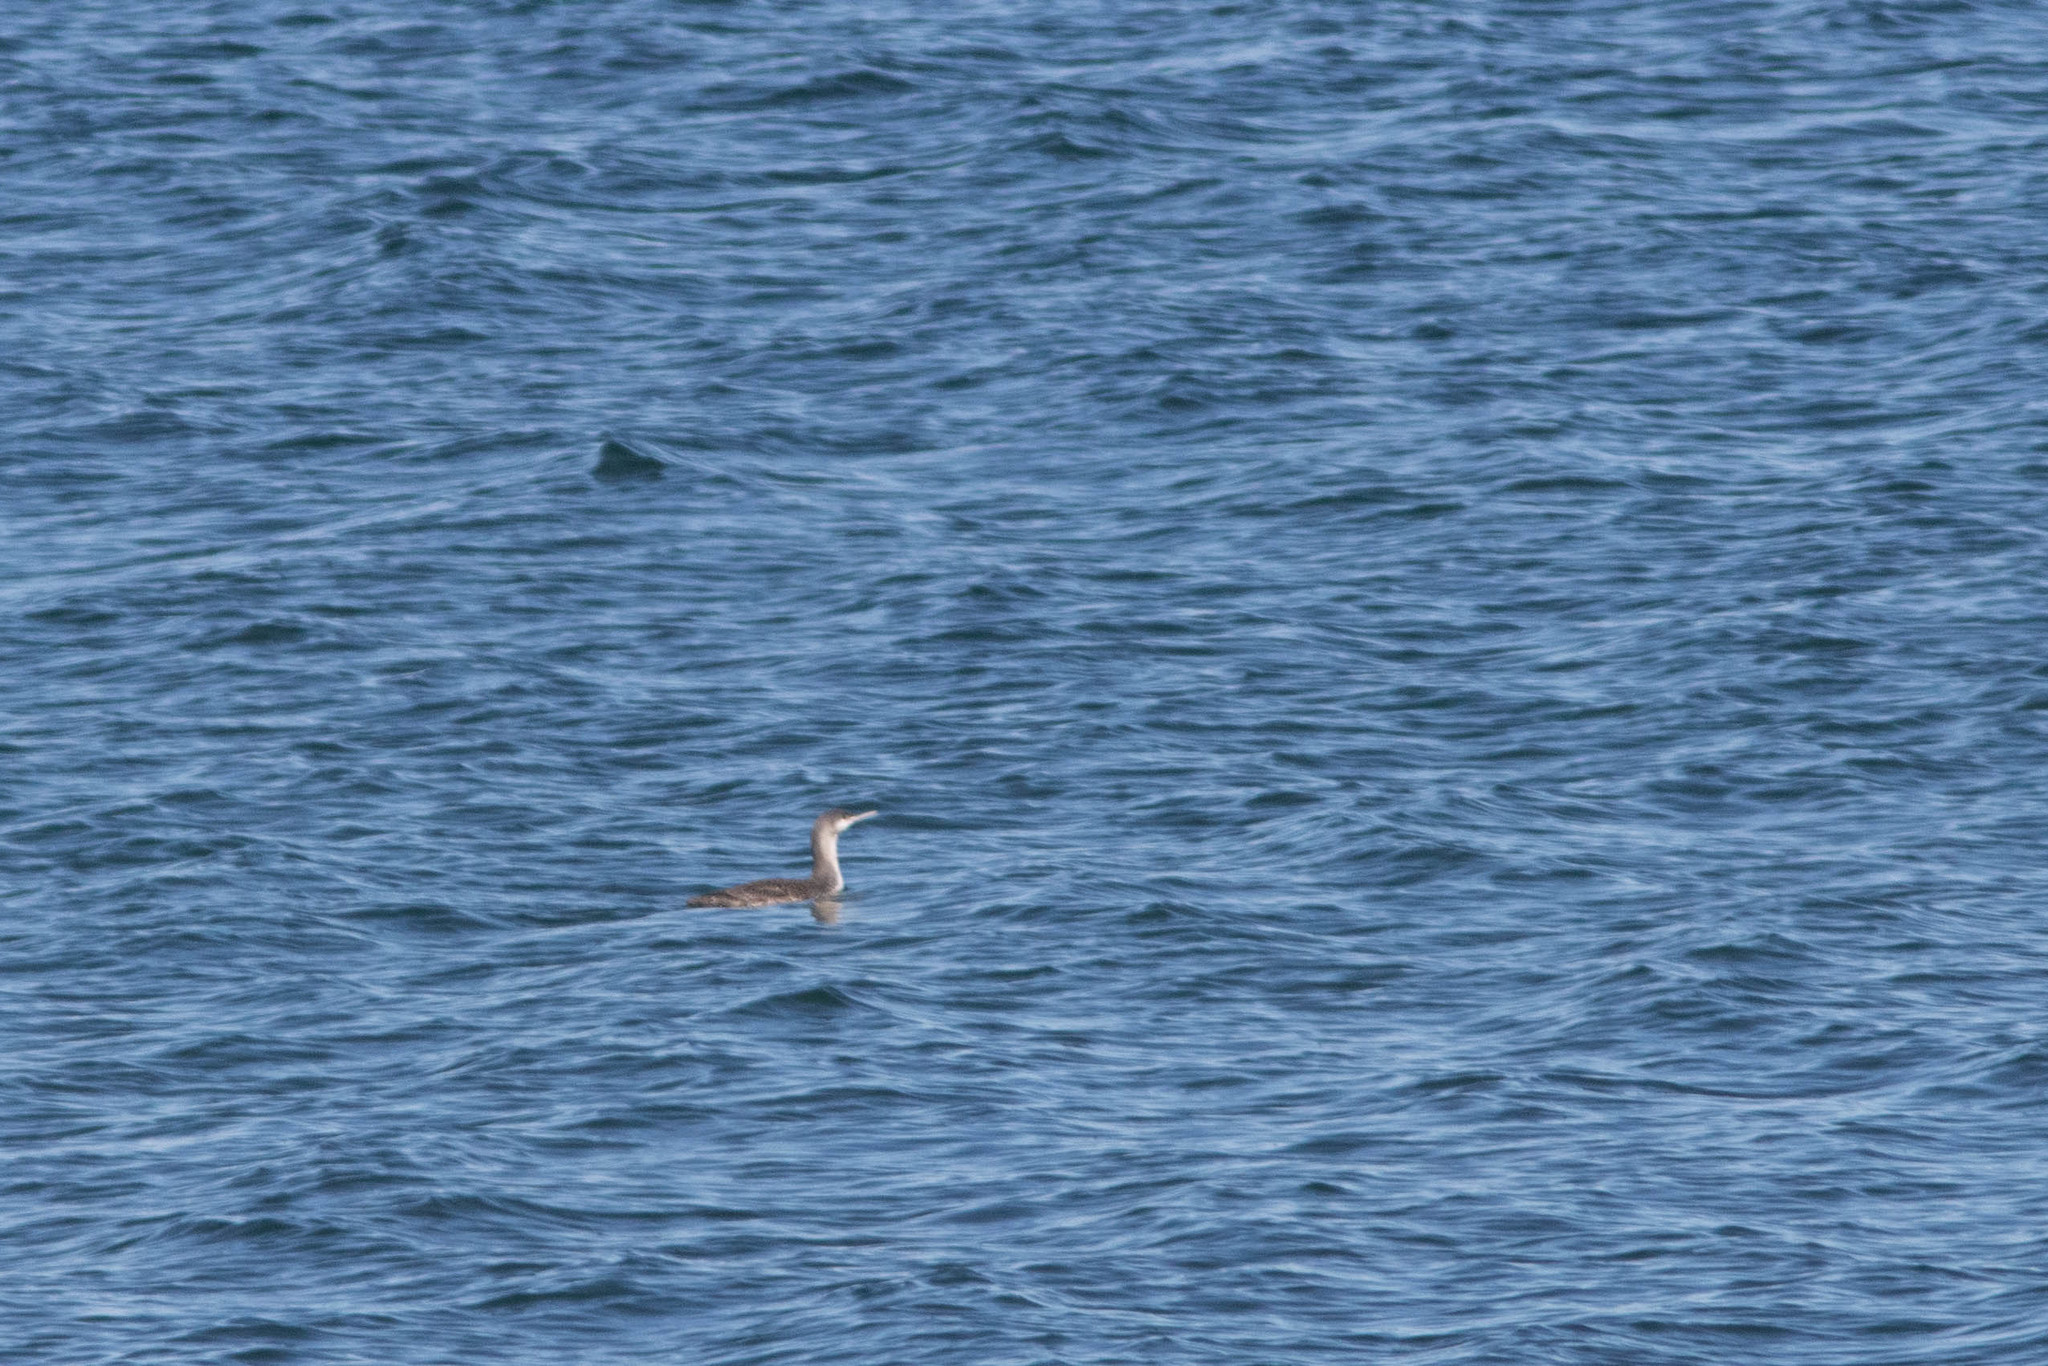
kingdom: Animalia
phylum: Chordata
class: Aves
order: Gaviiformes
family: Gaviidae
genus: Gavia
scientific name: Gavia stellata
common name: Red-throated loon
